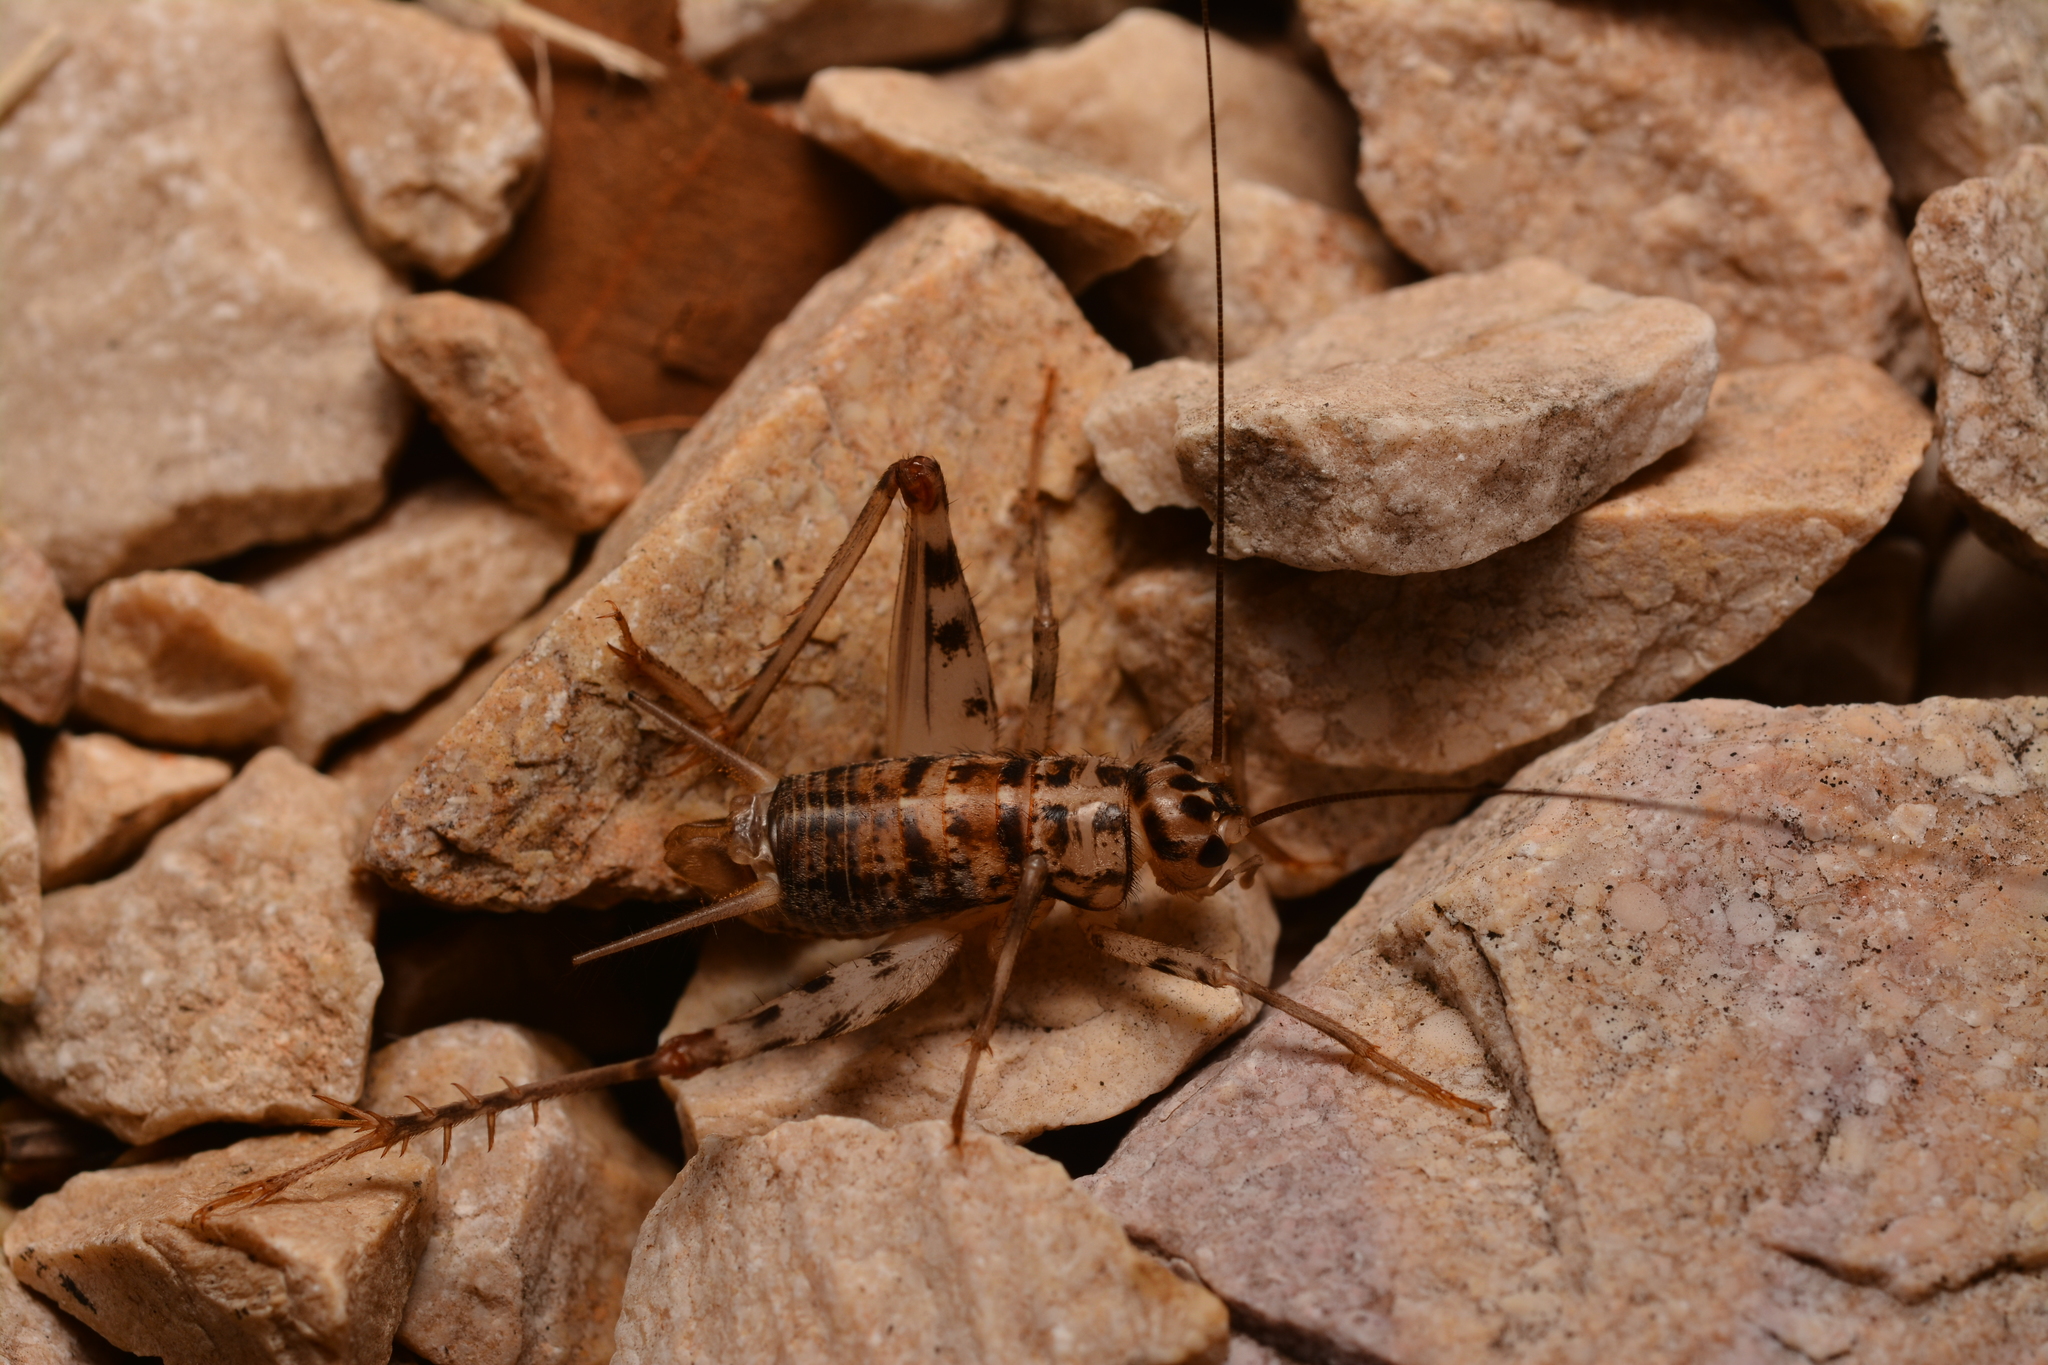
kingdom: Animalia
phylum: Arthropoda
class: Insecta
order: Orthoptera
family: Gryllidae
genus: Gryllomorpha
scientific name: Gryllomorpha dalmatina
